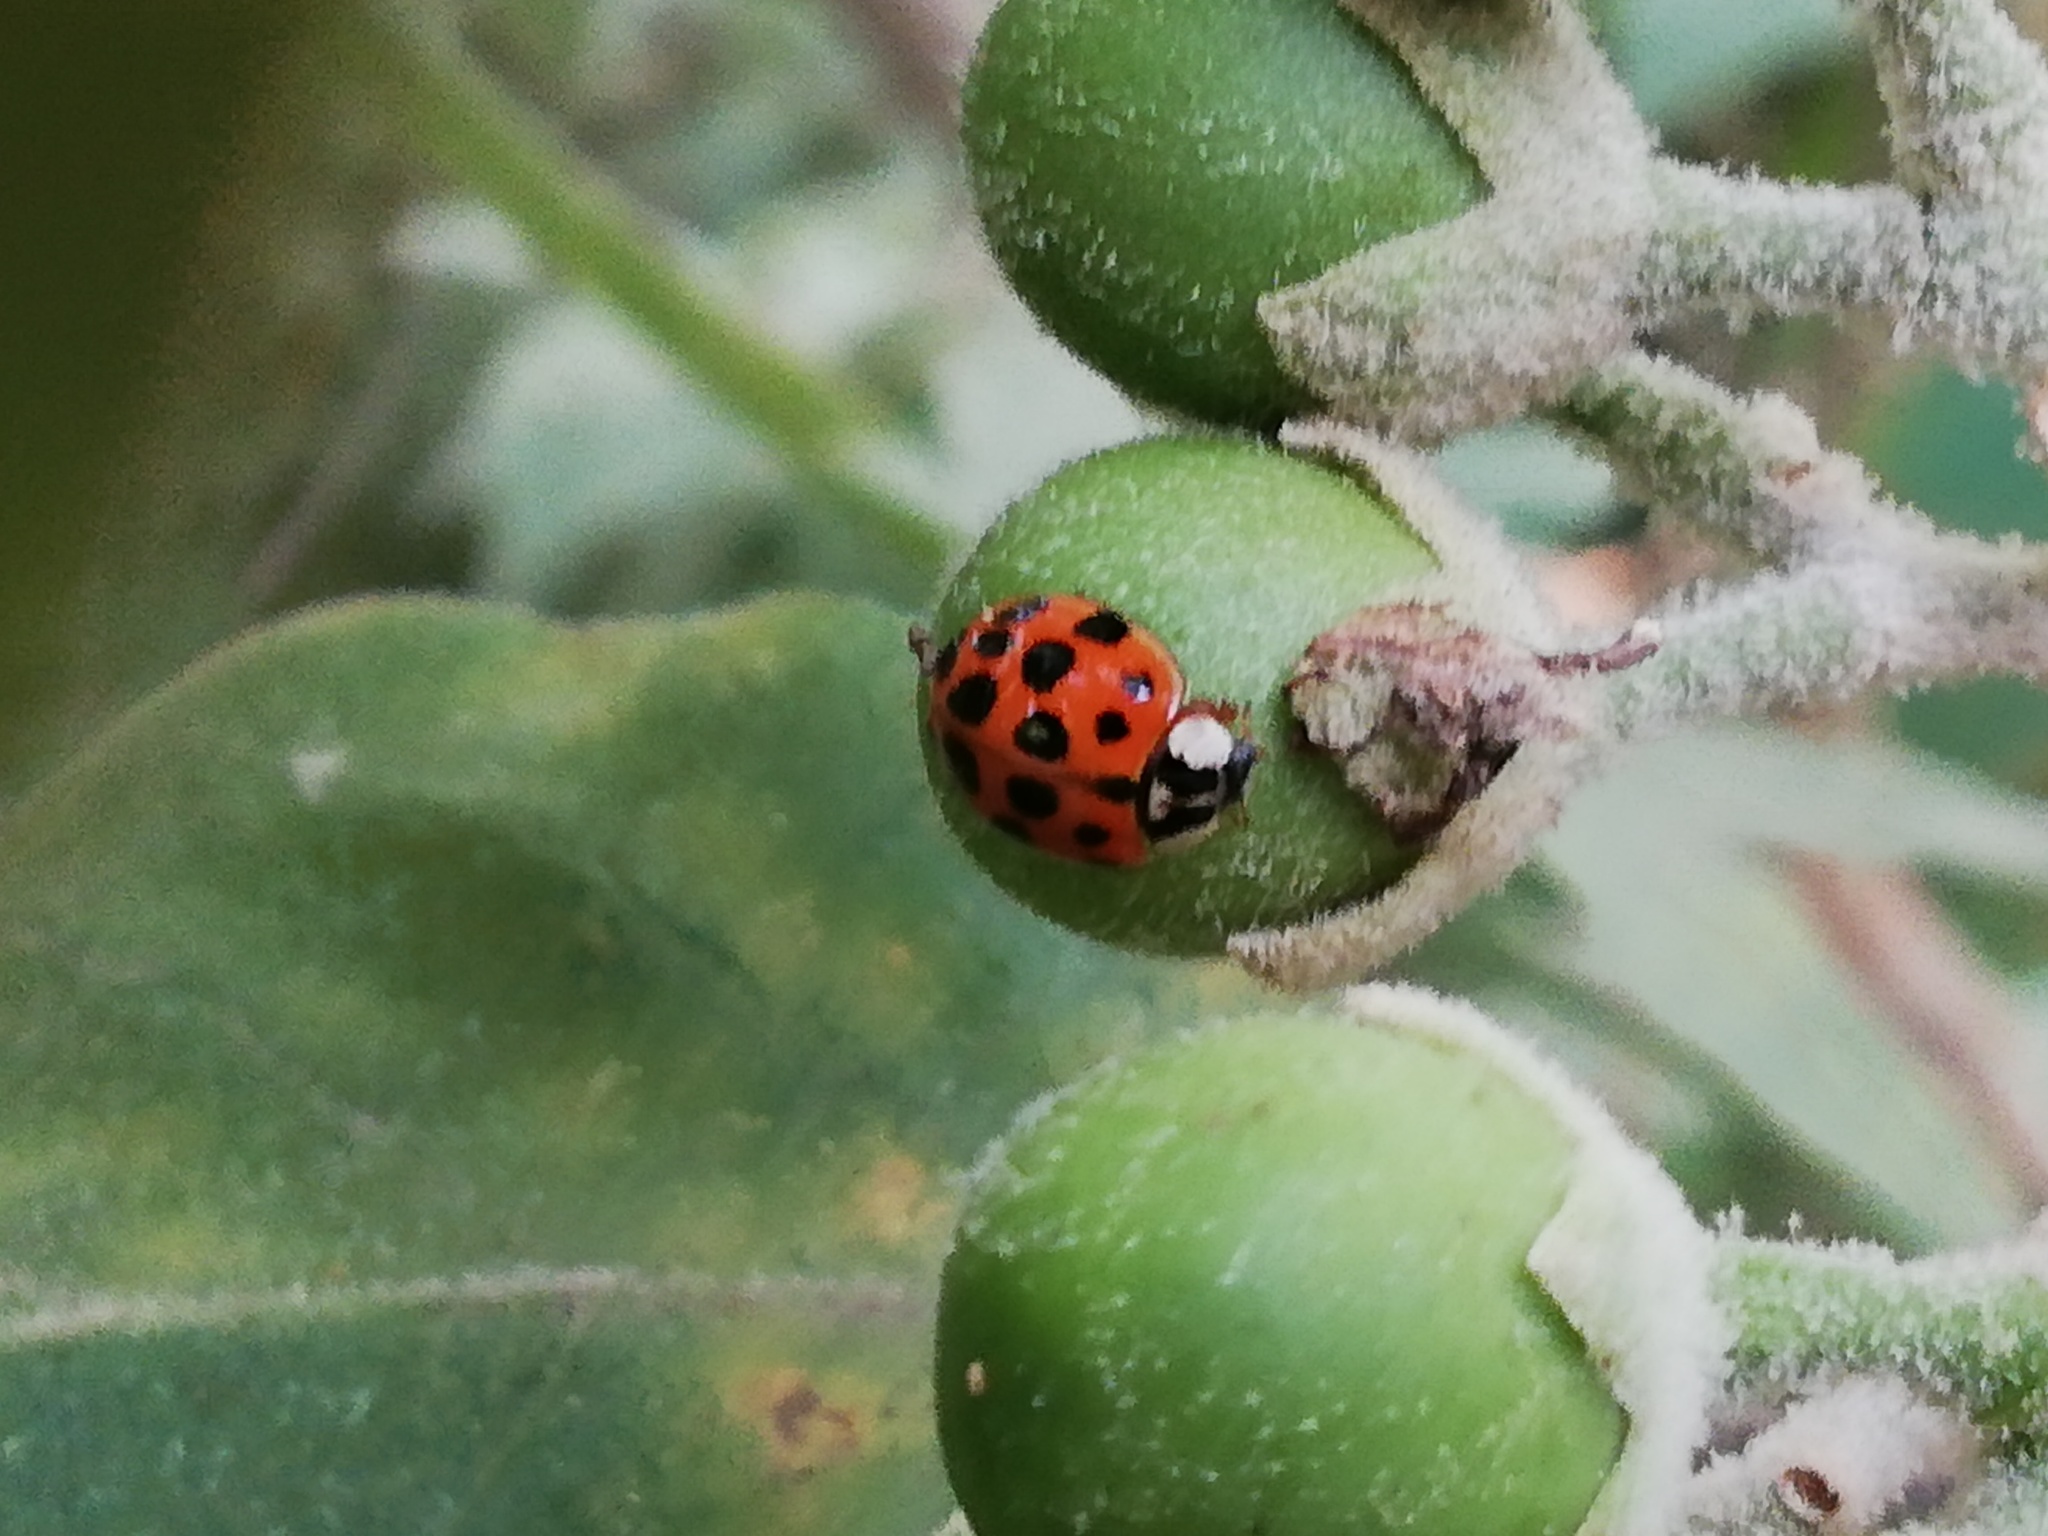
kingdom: Animalia
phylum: Arthropoda
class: Insecta
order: Coleoptera
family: Coccinellidae
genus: Harmonia
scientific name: Harmonia axyridis
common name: Harlequin ladybird
